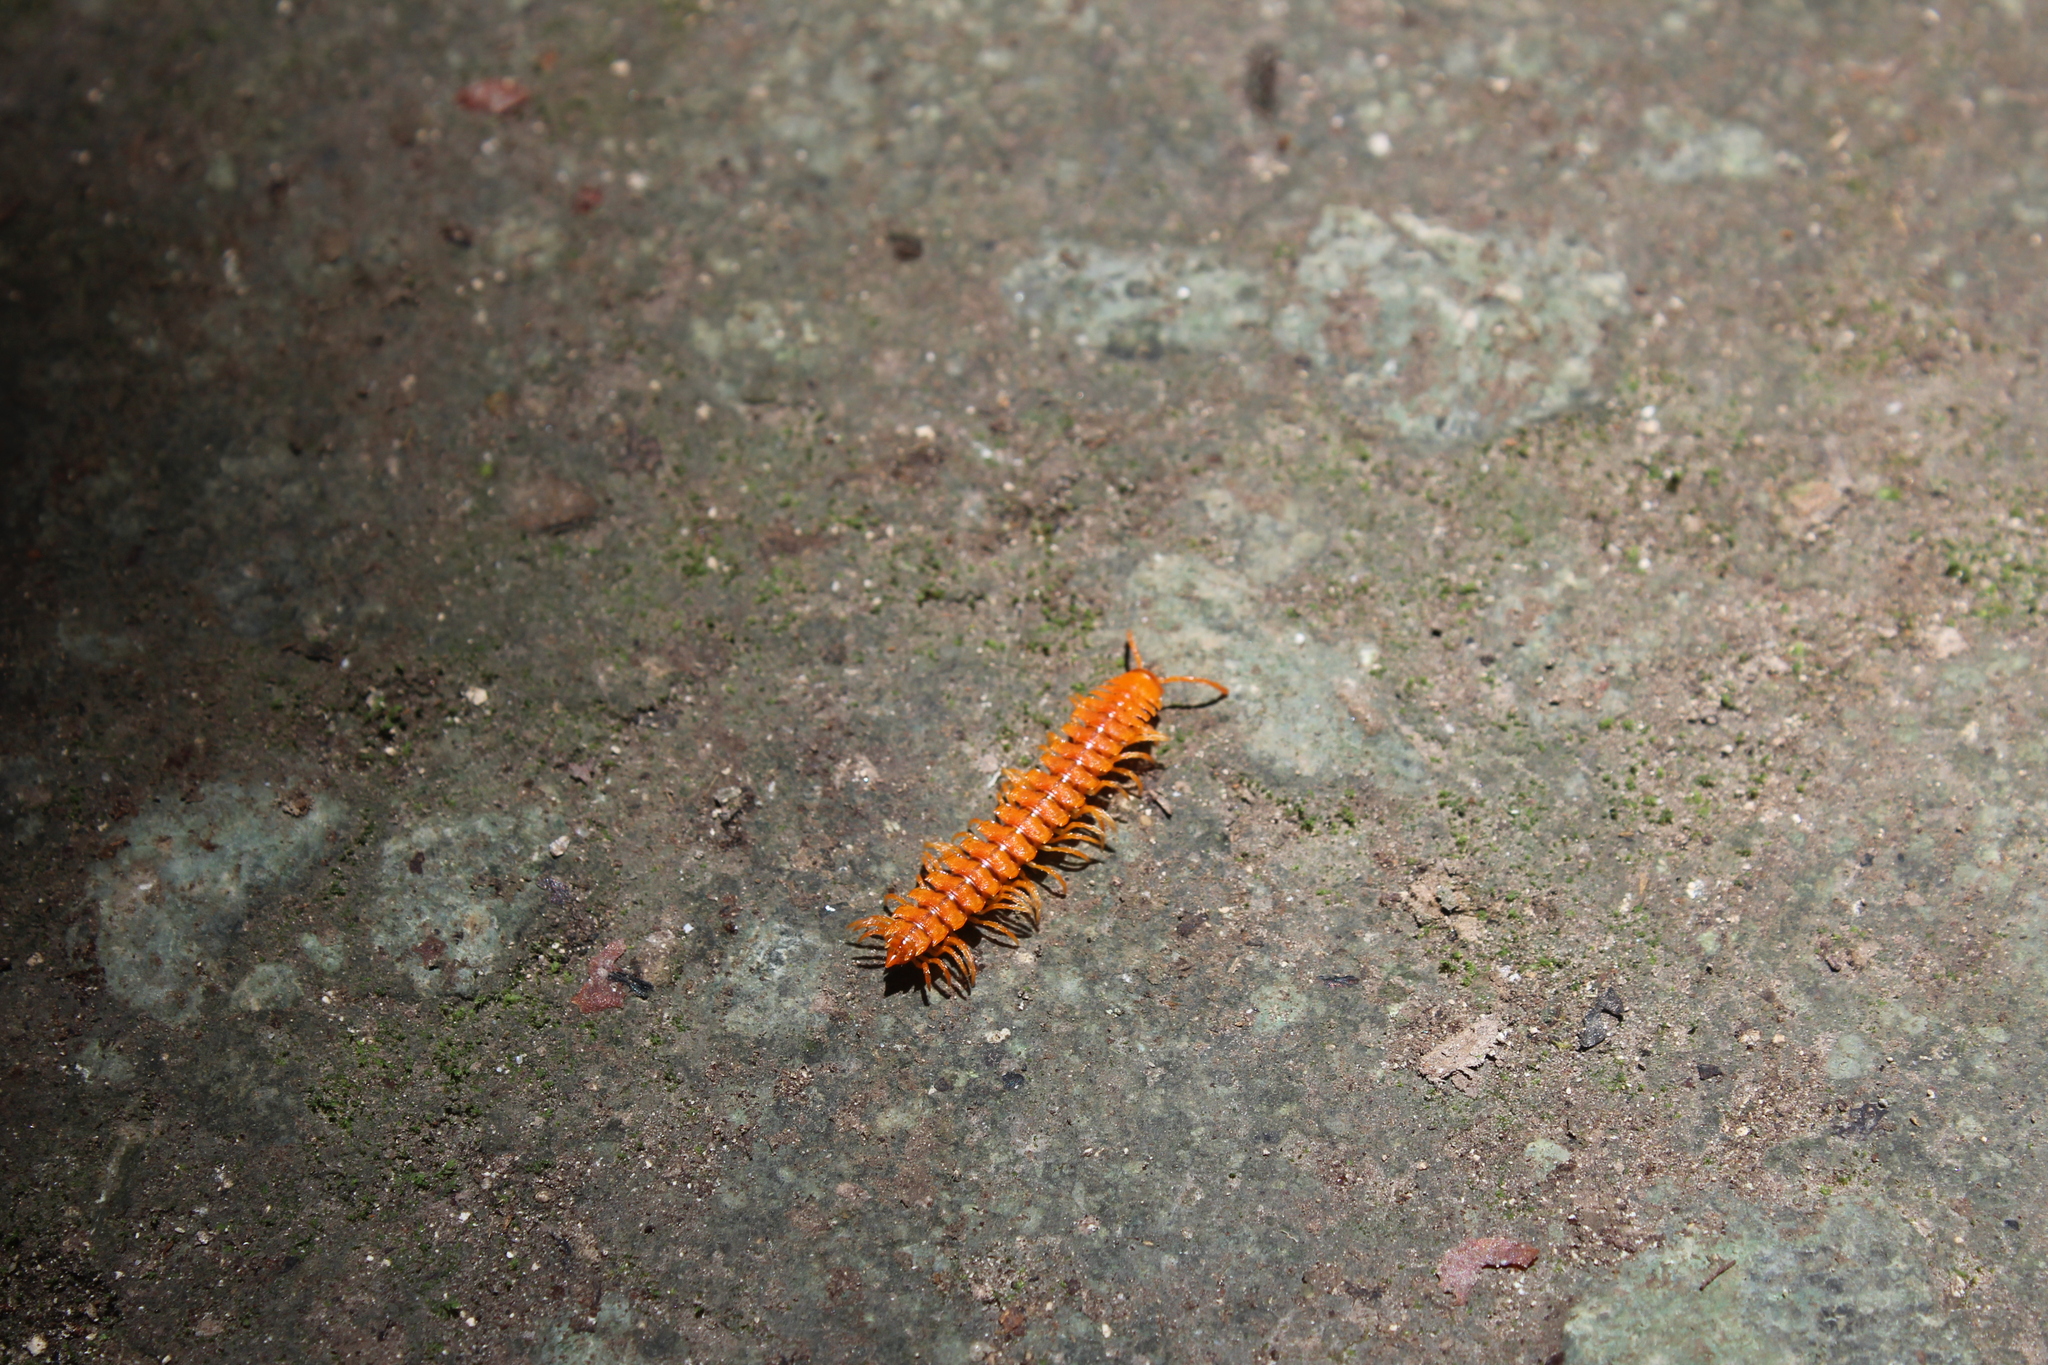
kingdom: Animalia
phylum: Arthropoda
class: Diplopoda
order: Polydesmida
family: Rhachodesmidae
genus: Aceratophallus
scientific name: Aceratophallus maya
